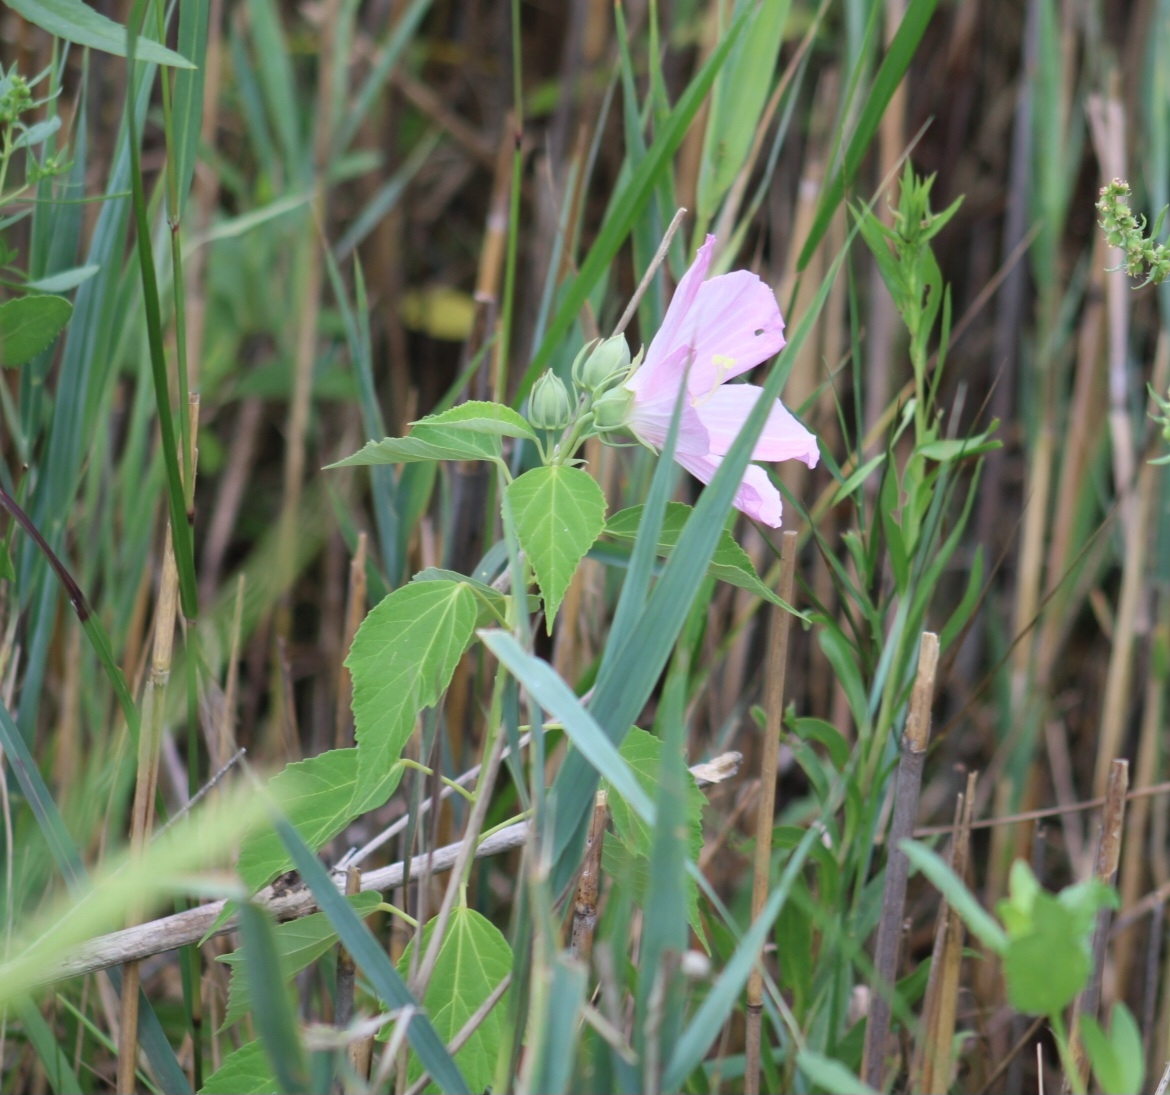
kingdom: Plantae
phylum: Tracheophyta
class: Magnoliopsida
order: Malvales
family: Malvaceae
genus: Hibiscus
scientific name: Hibiscus moscheutos
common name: Common rose-mallow
